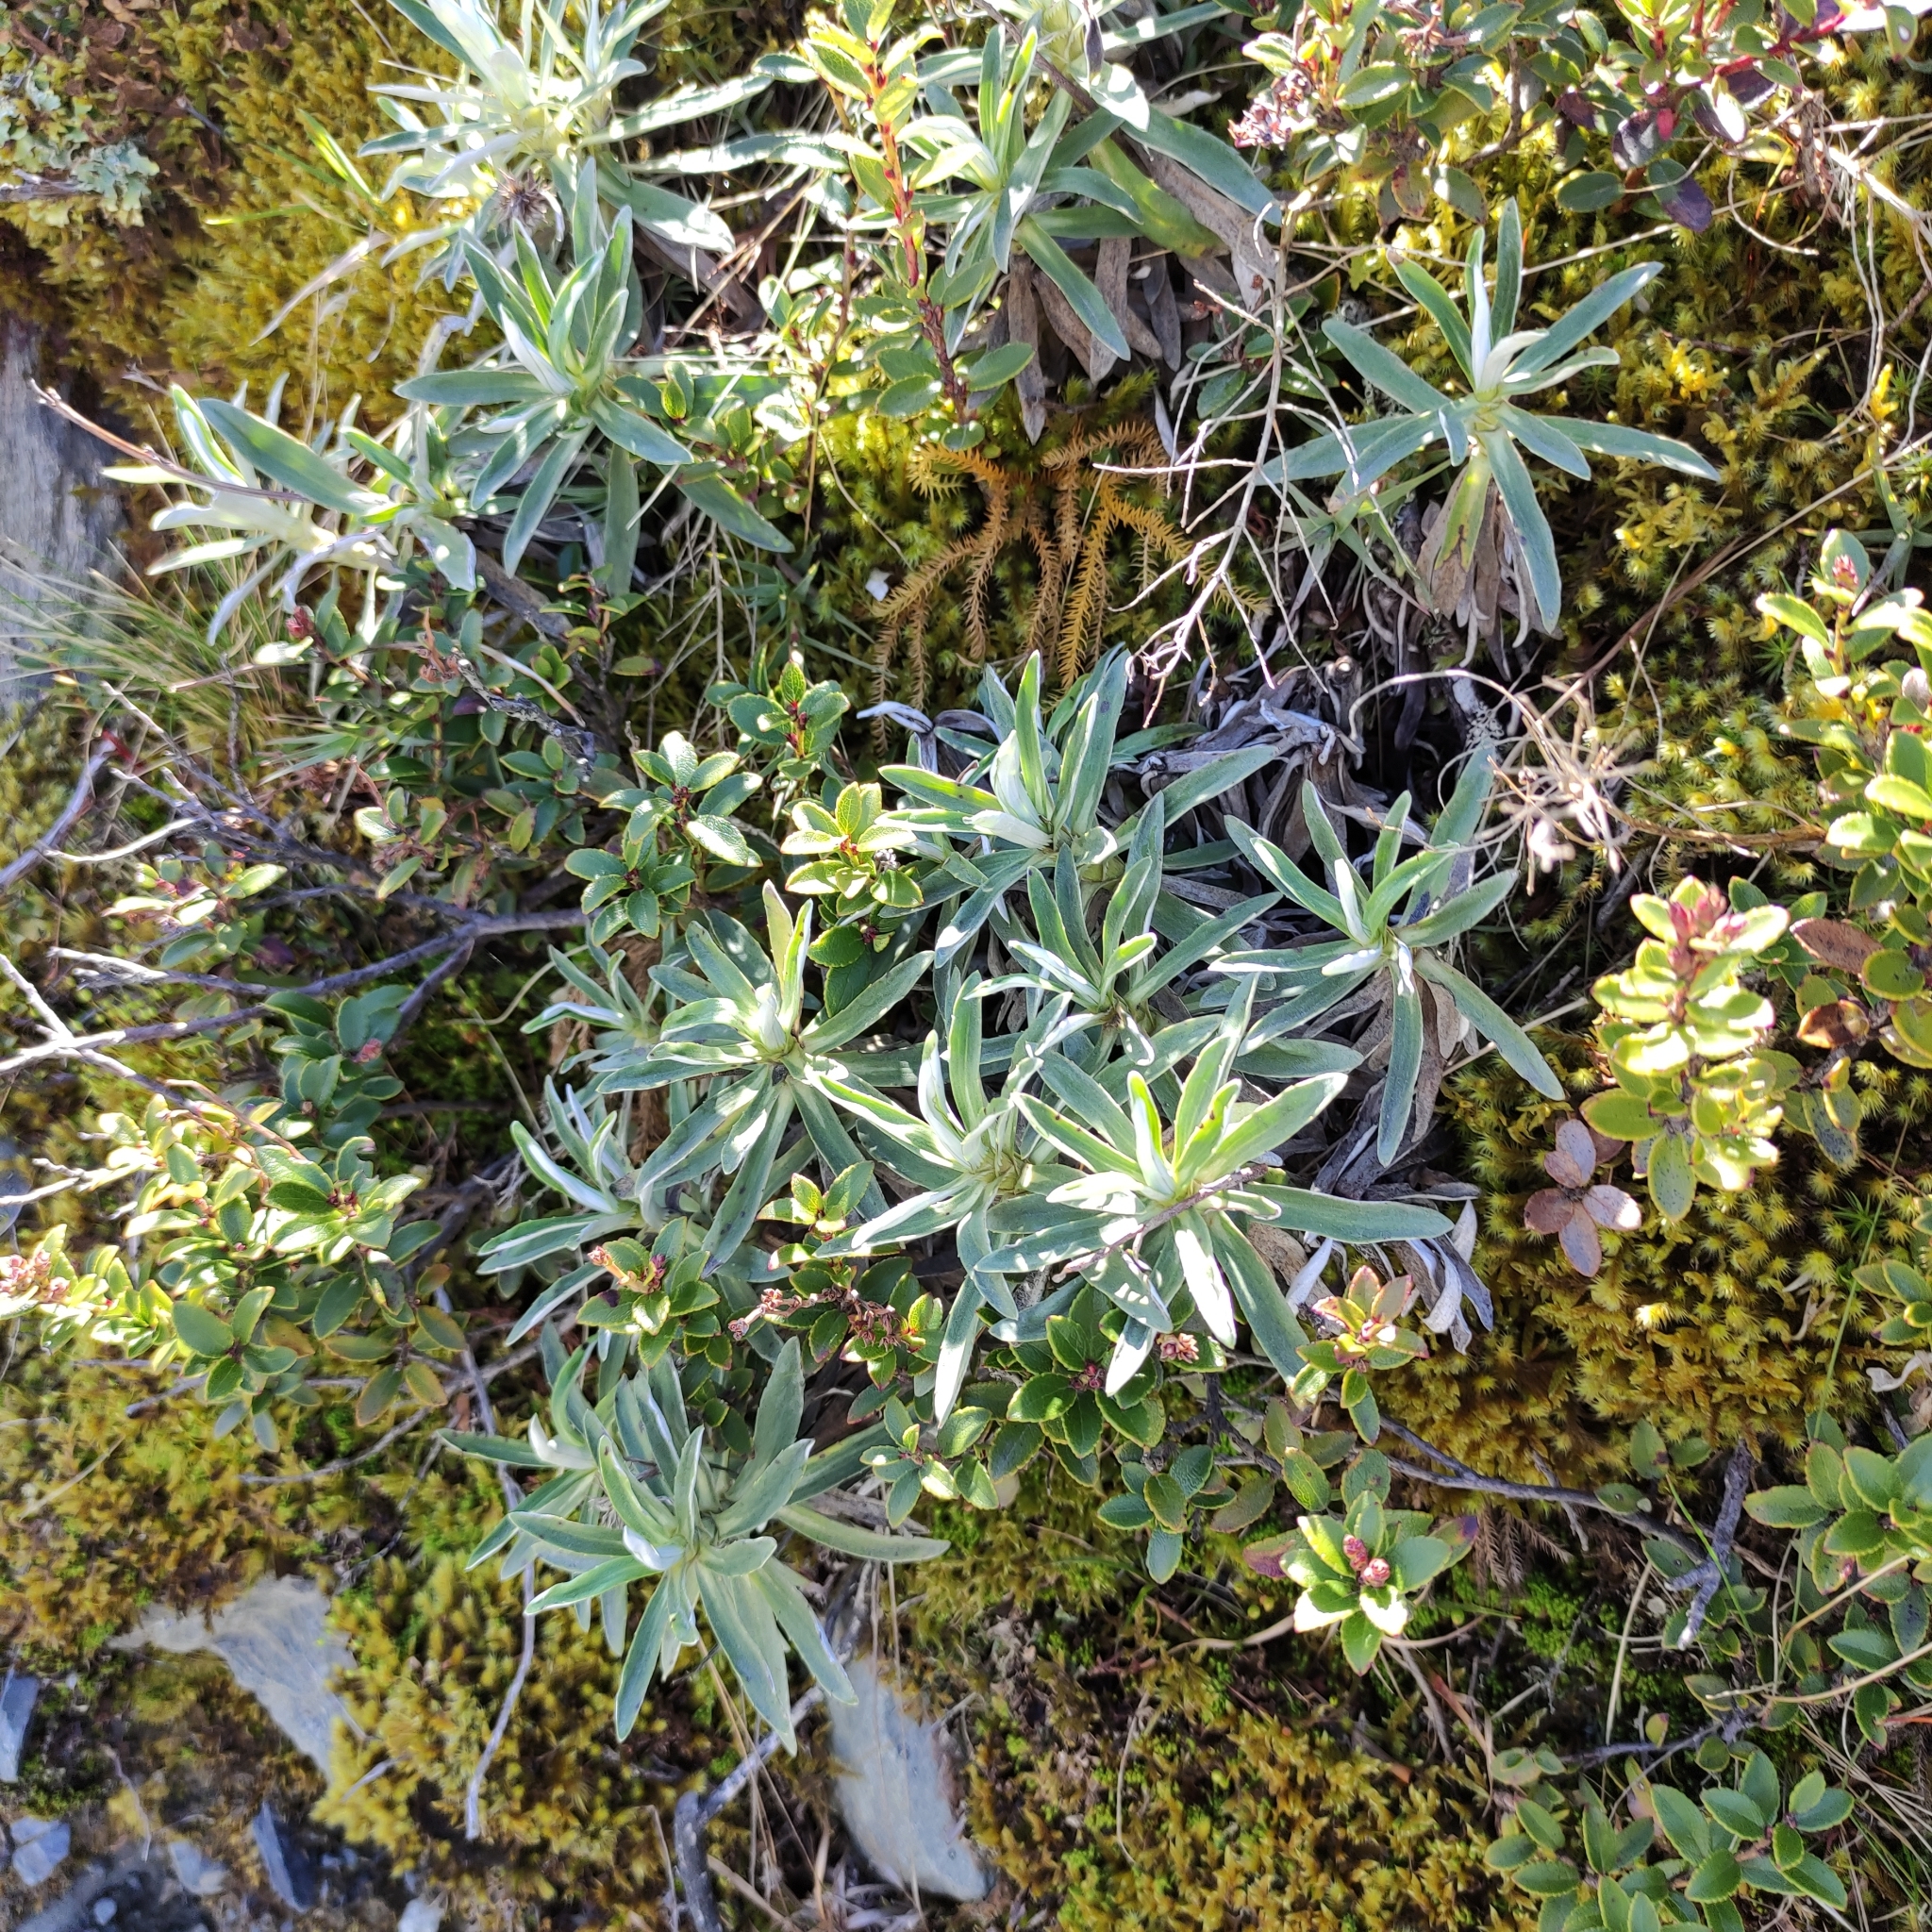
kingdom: Plantae
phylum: Tracheophyta
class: Magnoliopsida
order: Asterales
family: Asteraceae
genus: Celmisia
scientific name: Celmisia angustifolia
